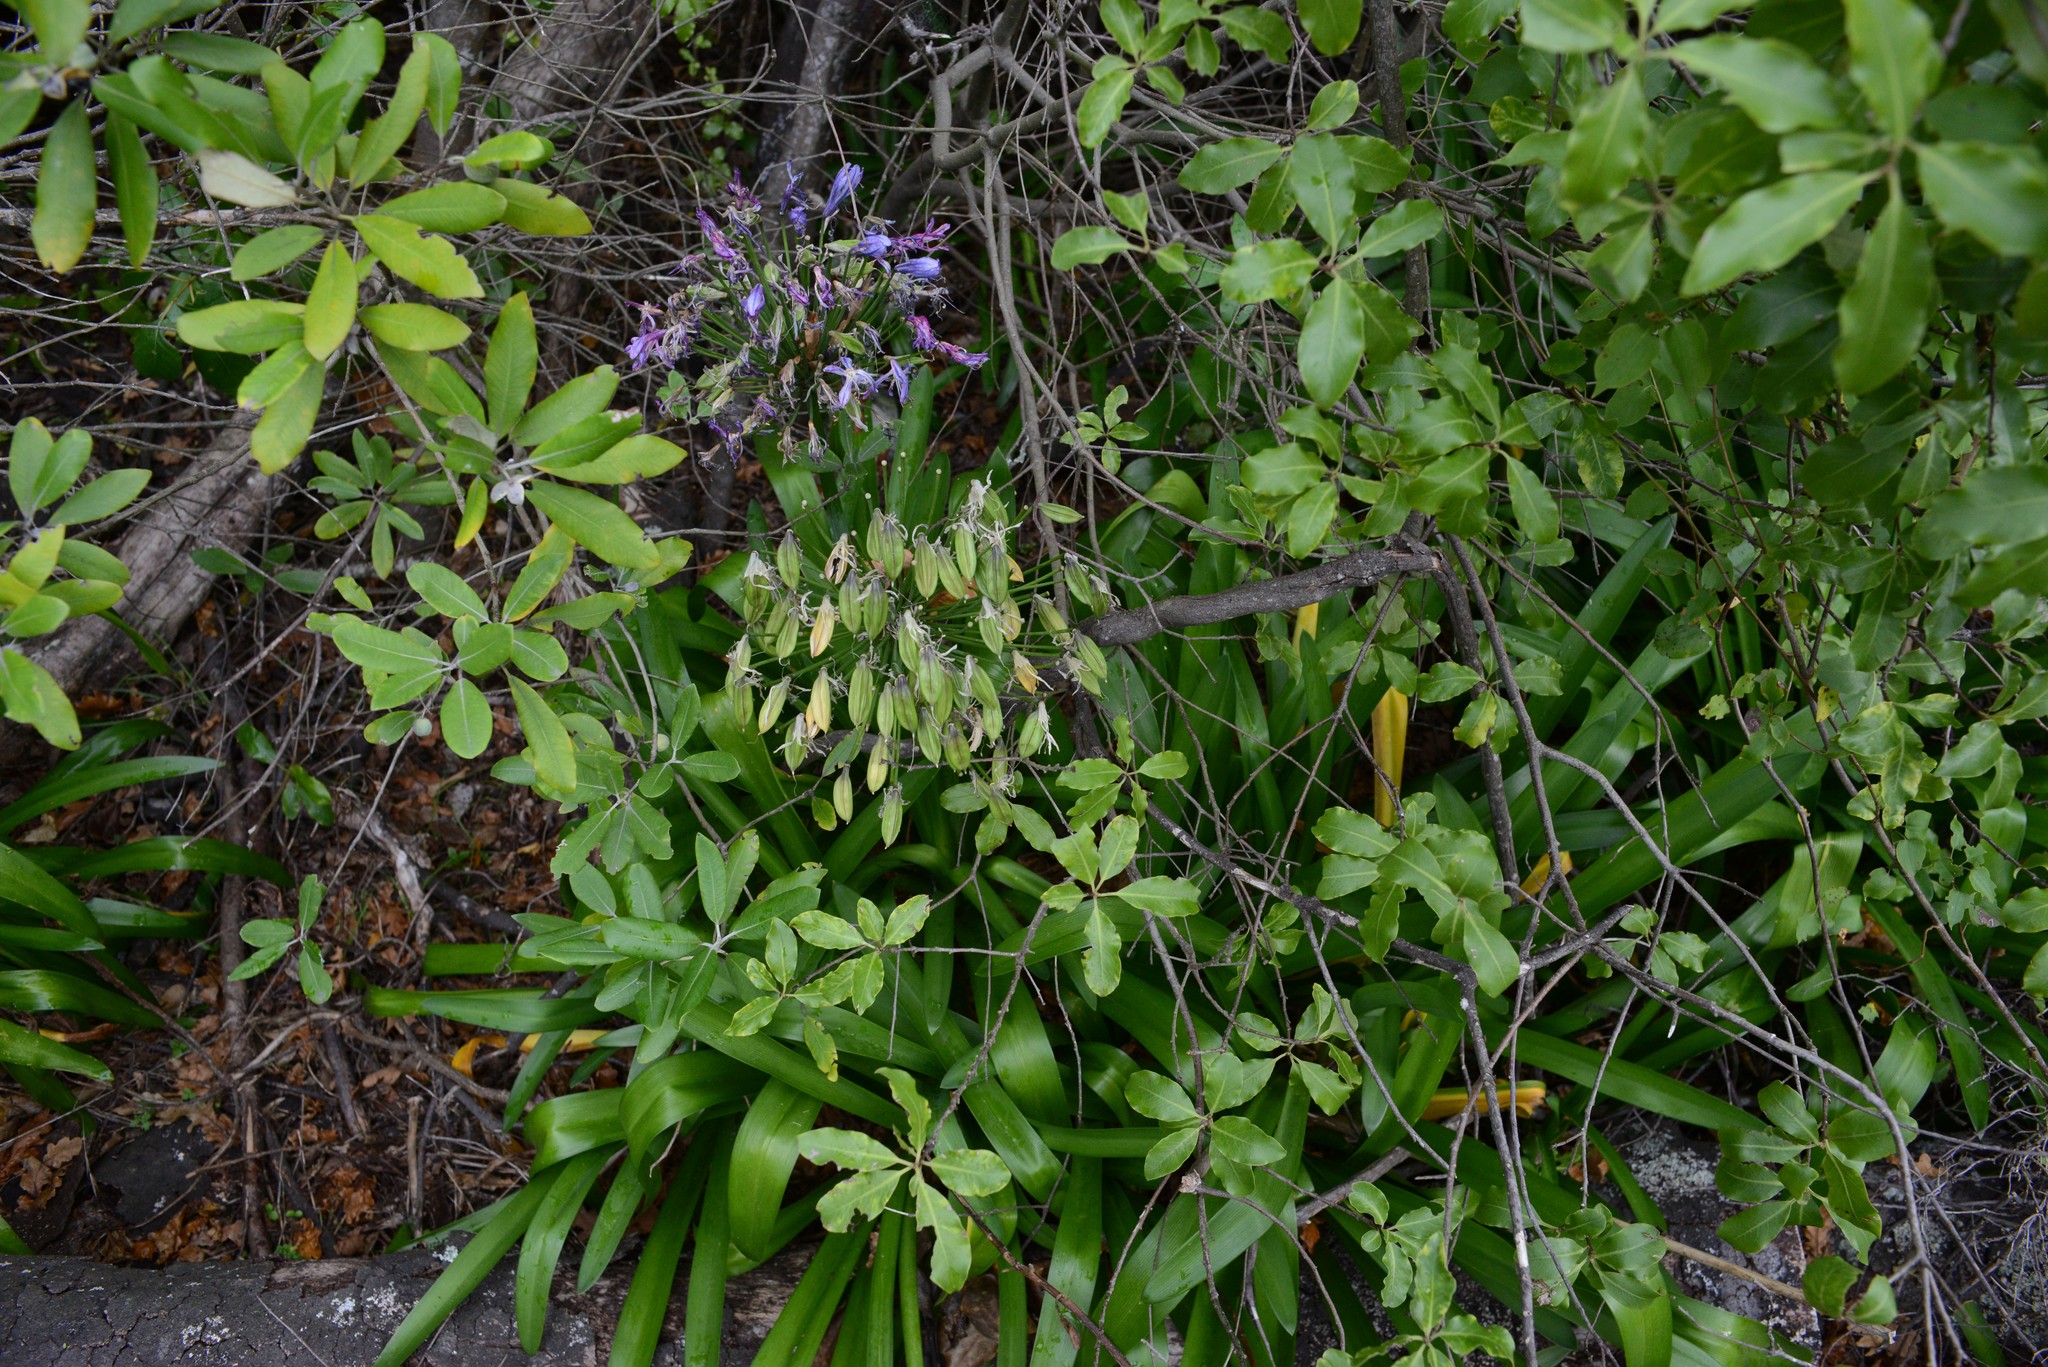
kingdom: Plantae
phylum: Tracheophyta
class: Liliopsida
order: Asparagales
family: Amaryllidaceae
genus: Agapanthus
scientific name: Agapanthus praecox
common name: African-lily
